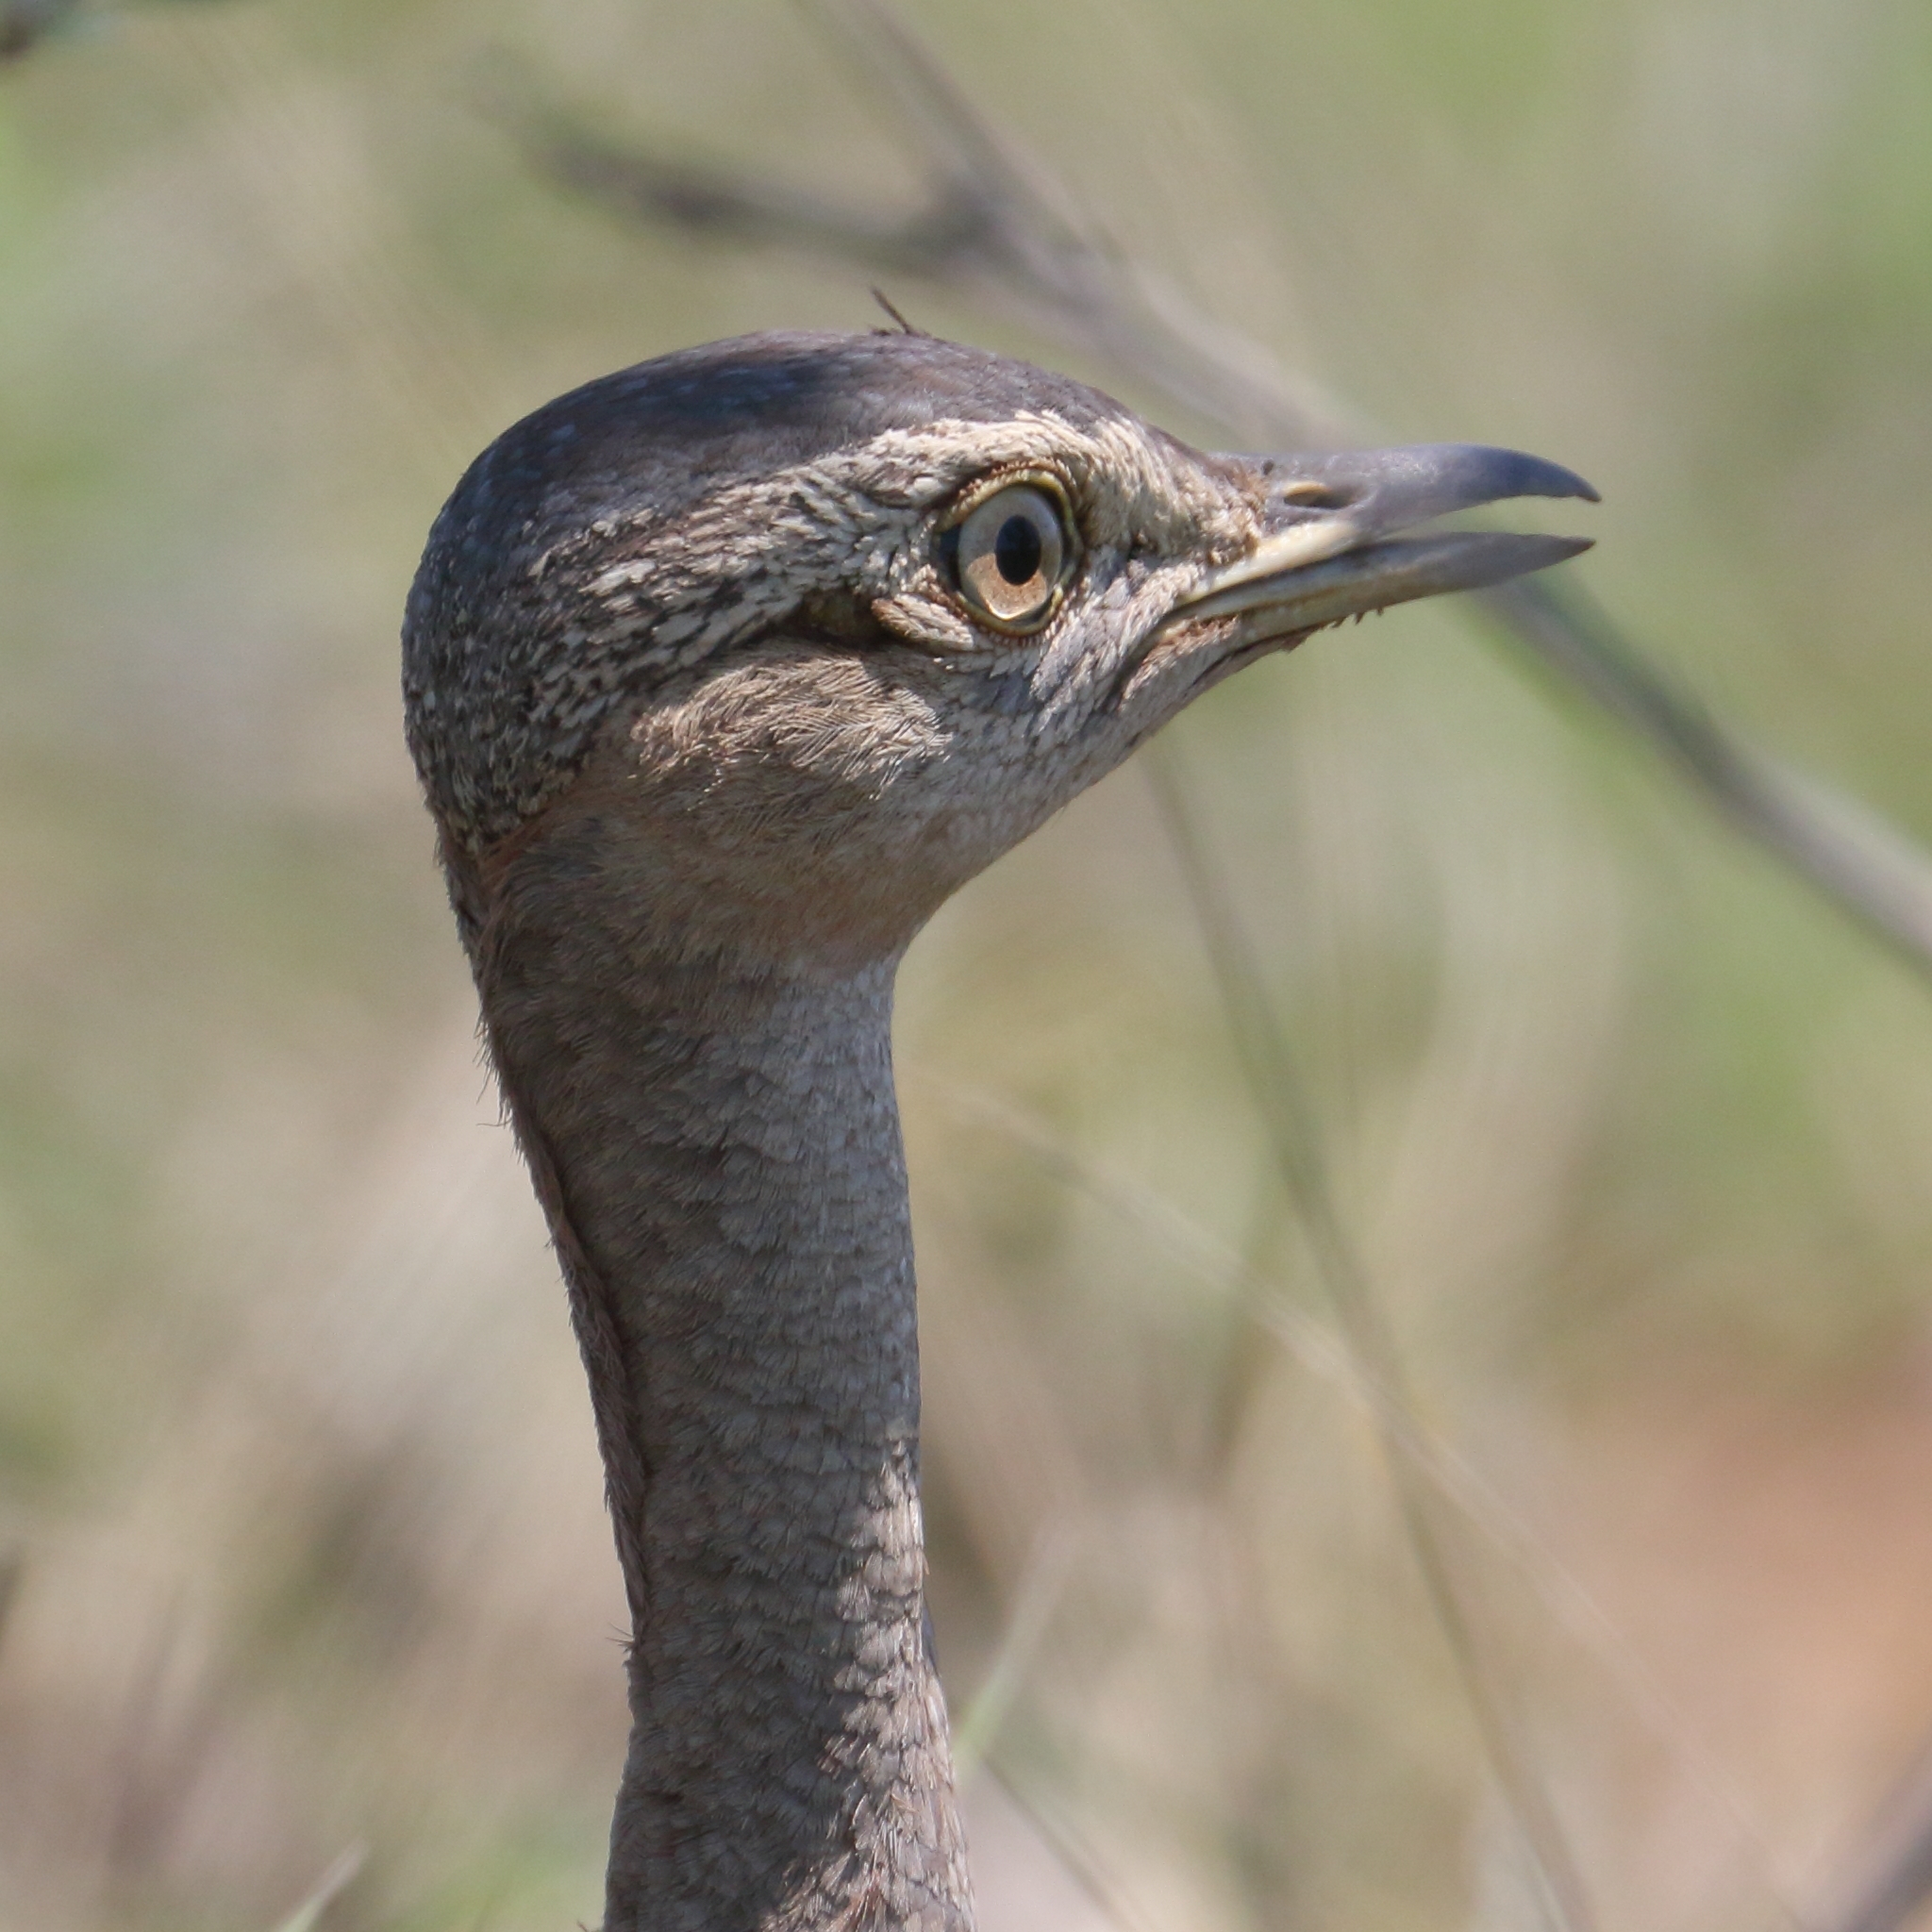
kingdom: Animalia
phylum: Chordata
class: Aves
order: Otidiformes
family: Otididae
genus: Lophotis
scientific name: Lophotis ruficrista
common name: Red-crested korhaan
